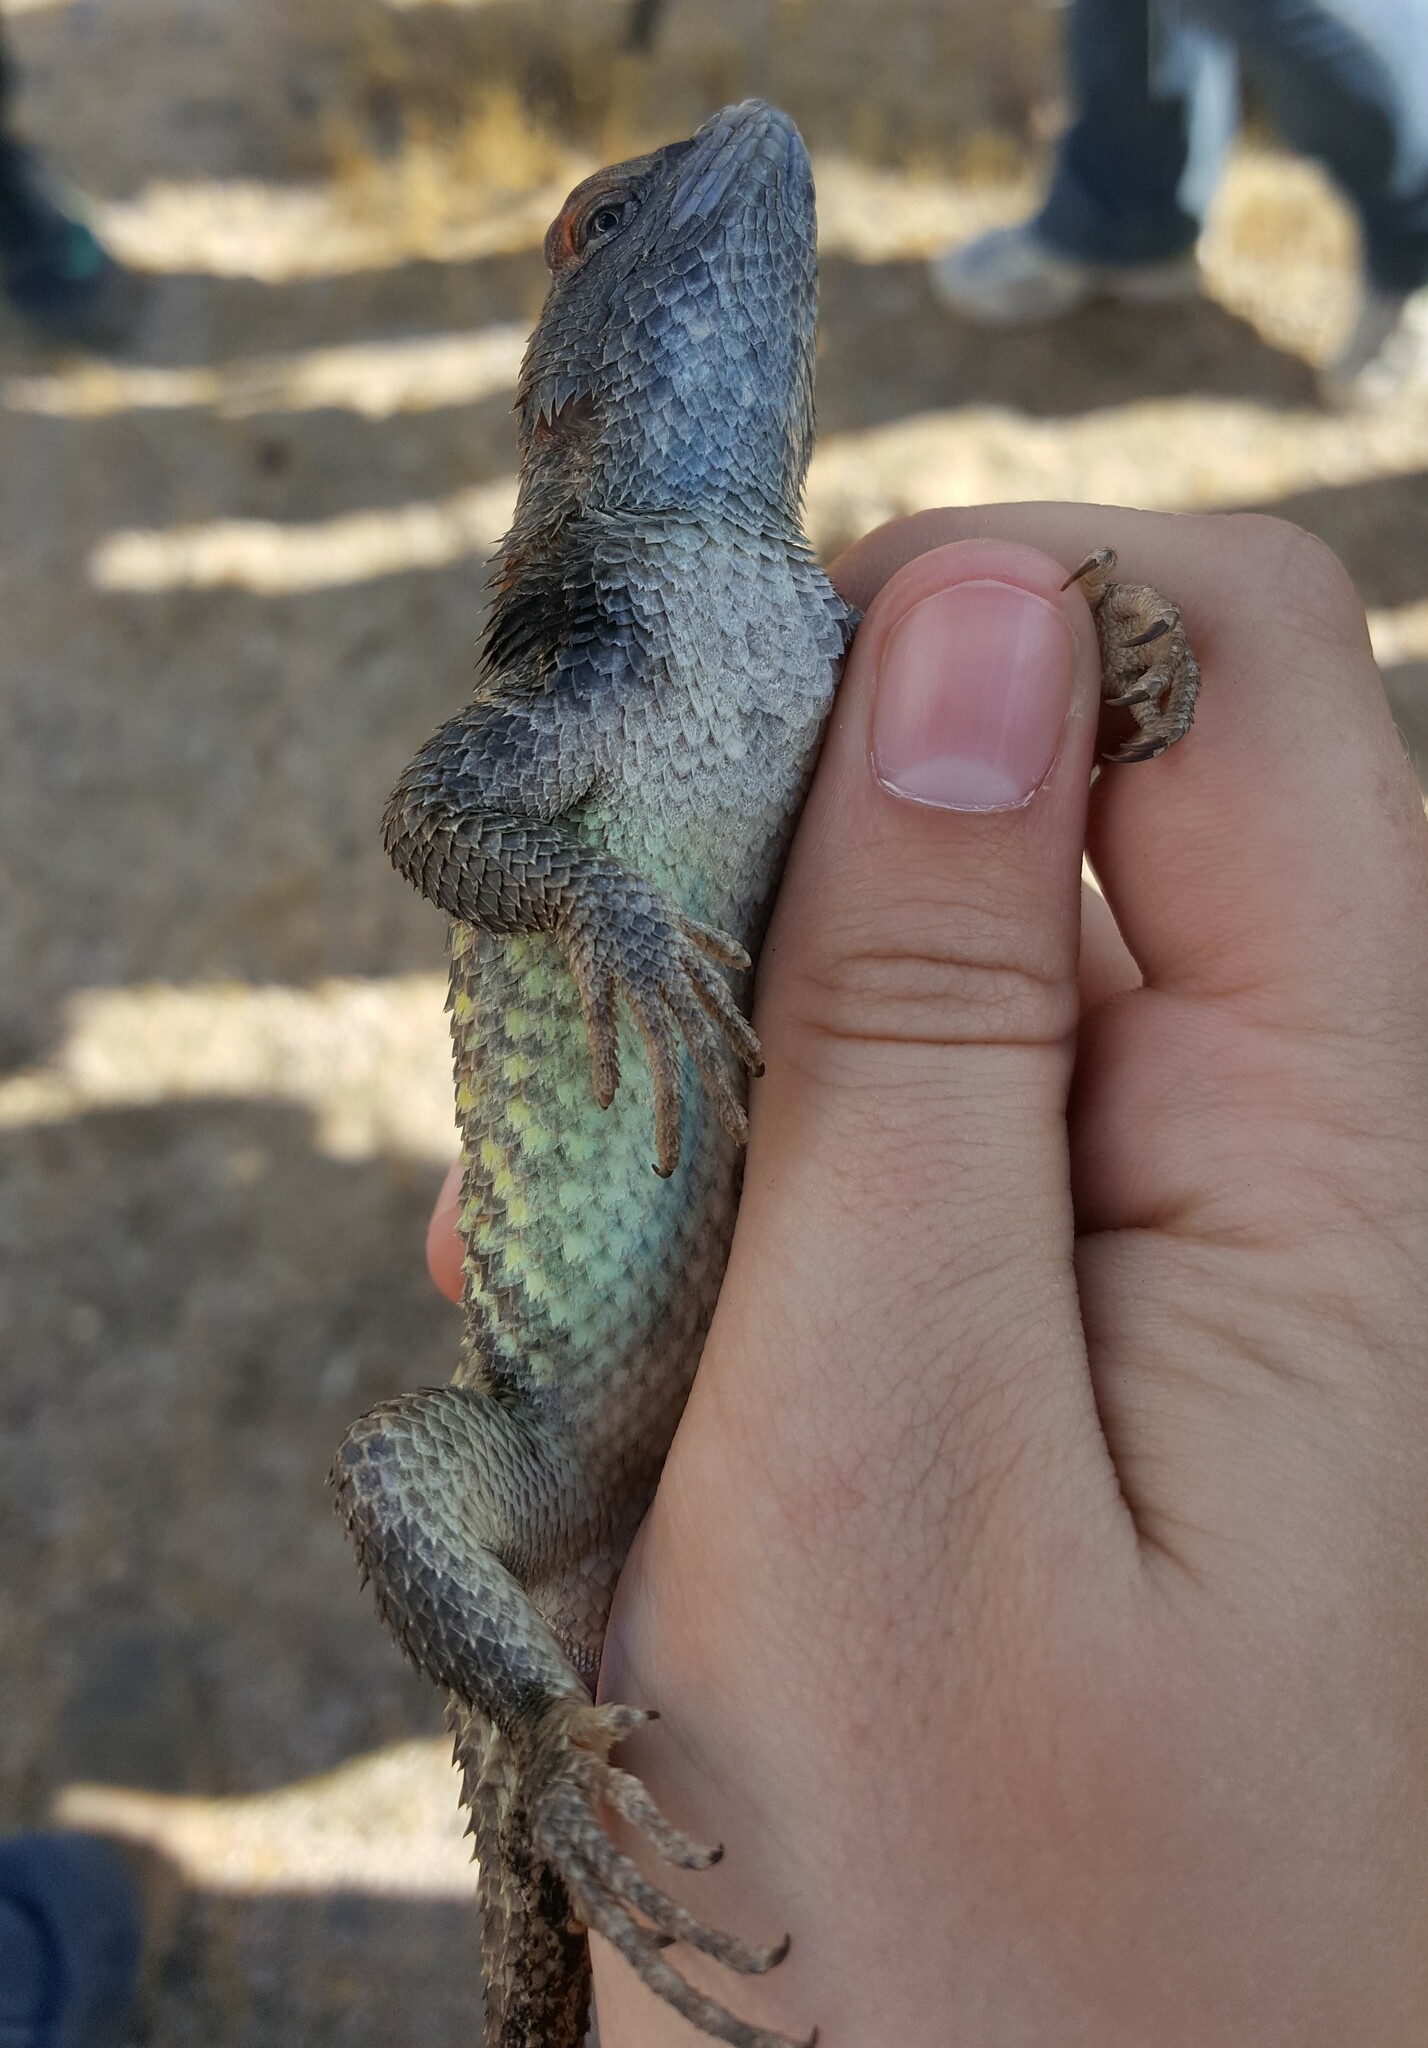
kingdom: Animalia
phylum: Chordata
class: Squamata
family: Phrynosomatidae
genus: Sceloporus
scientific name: Sceloporus uniformis
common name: Yellow-backed spiny lizard
